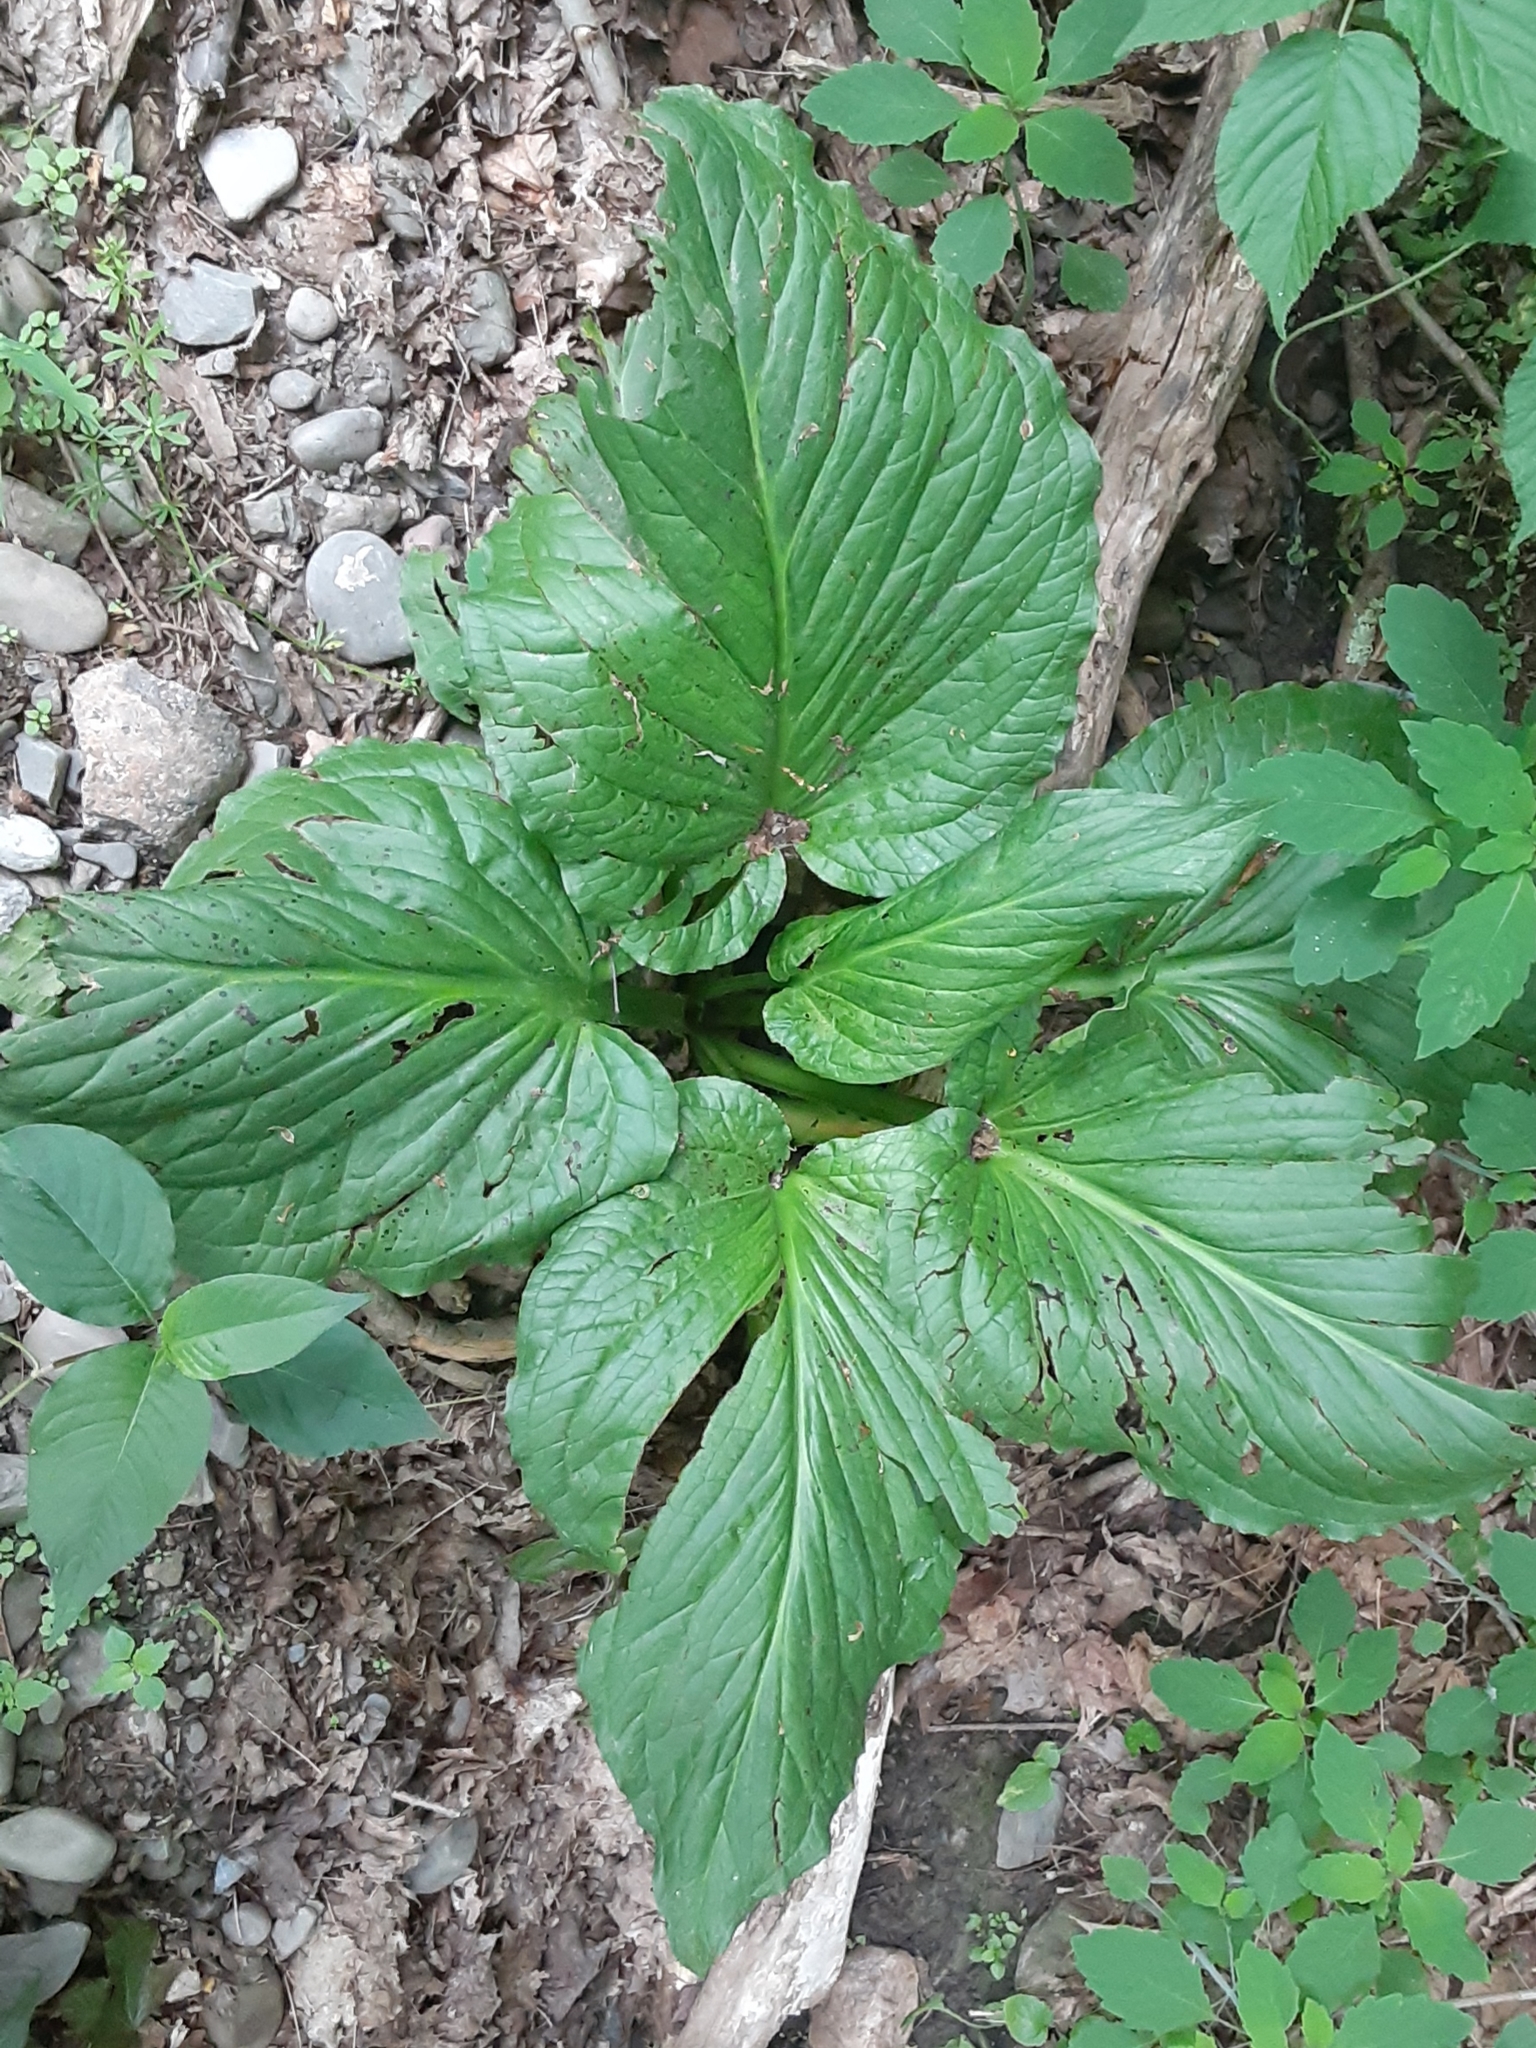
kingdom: Plantae
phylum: Tracheophyta
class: Liliopsida
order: Alismatales
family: Araceae
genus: Symplocarpus
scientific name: Symplocarpus foetidus
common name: Eastern skunk cabbage
